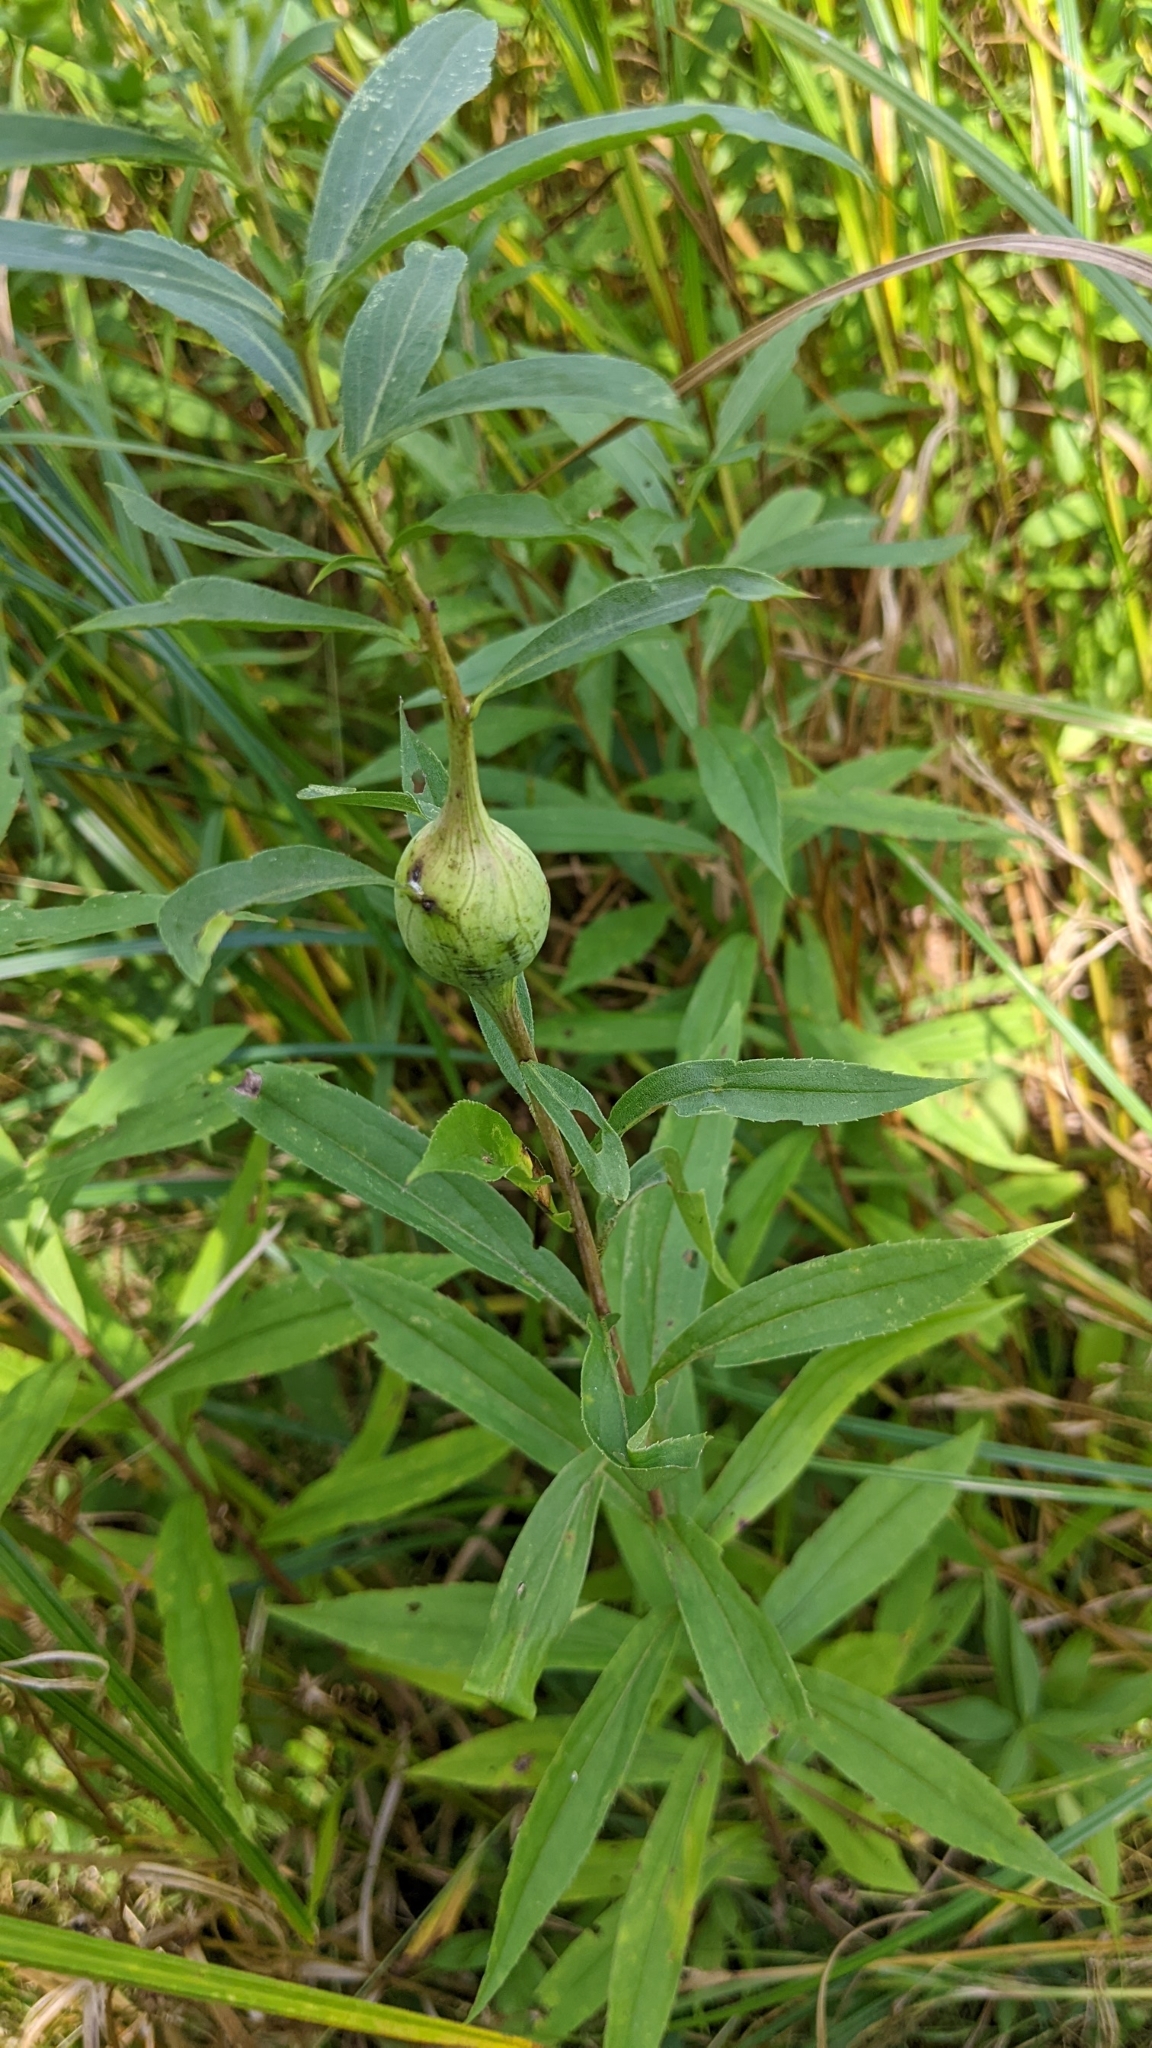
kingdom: Animalia
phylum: Arthropoda
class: Insecta
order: Diptera
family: Tephritidae
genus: Eurosta
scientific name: Eurosta solidaginis
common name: Goldenrod gall fly
